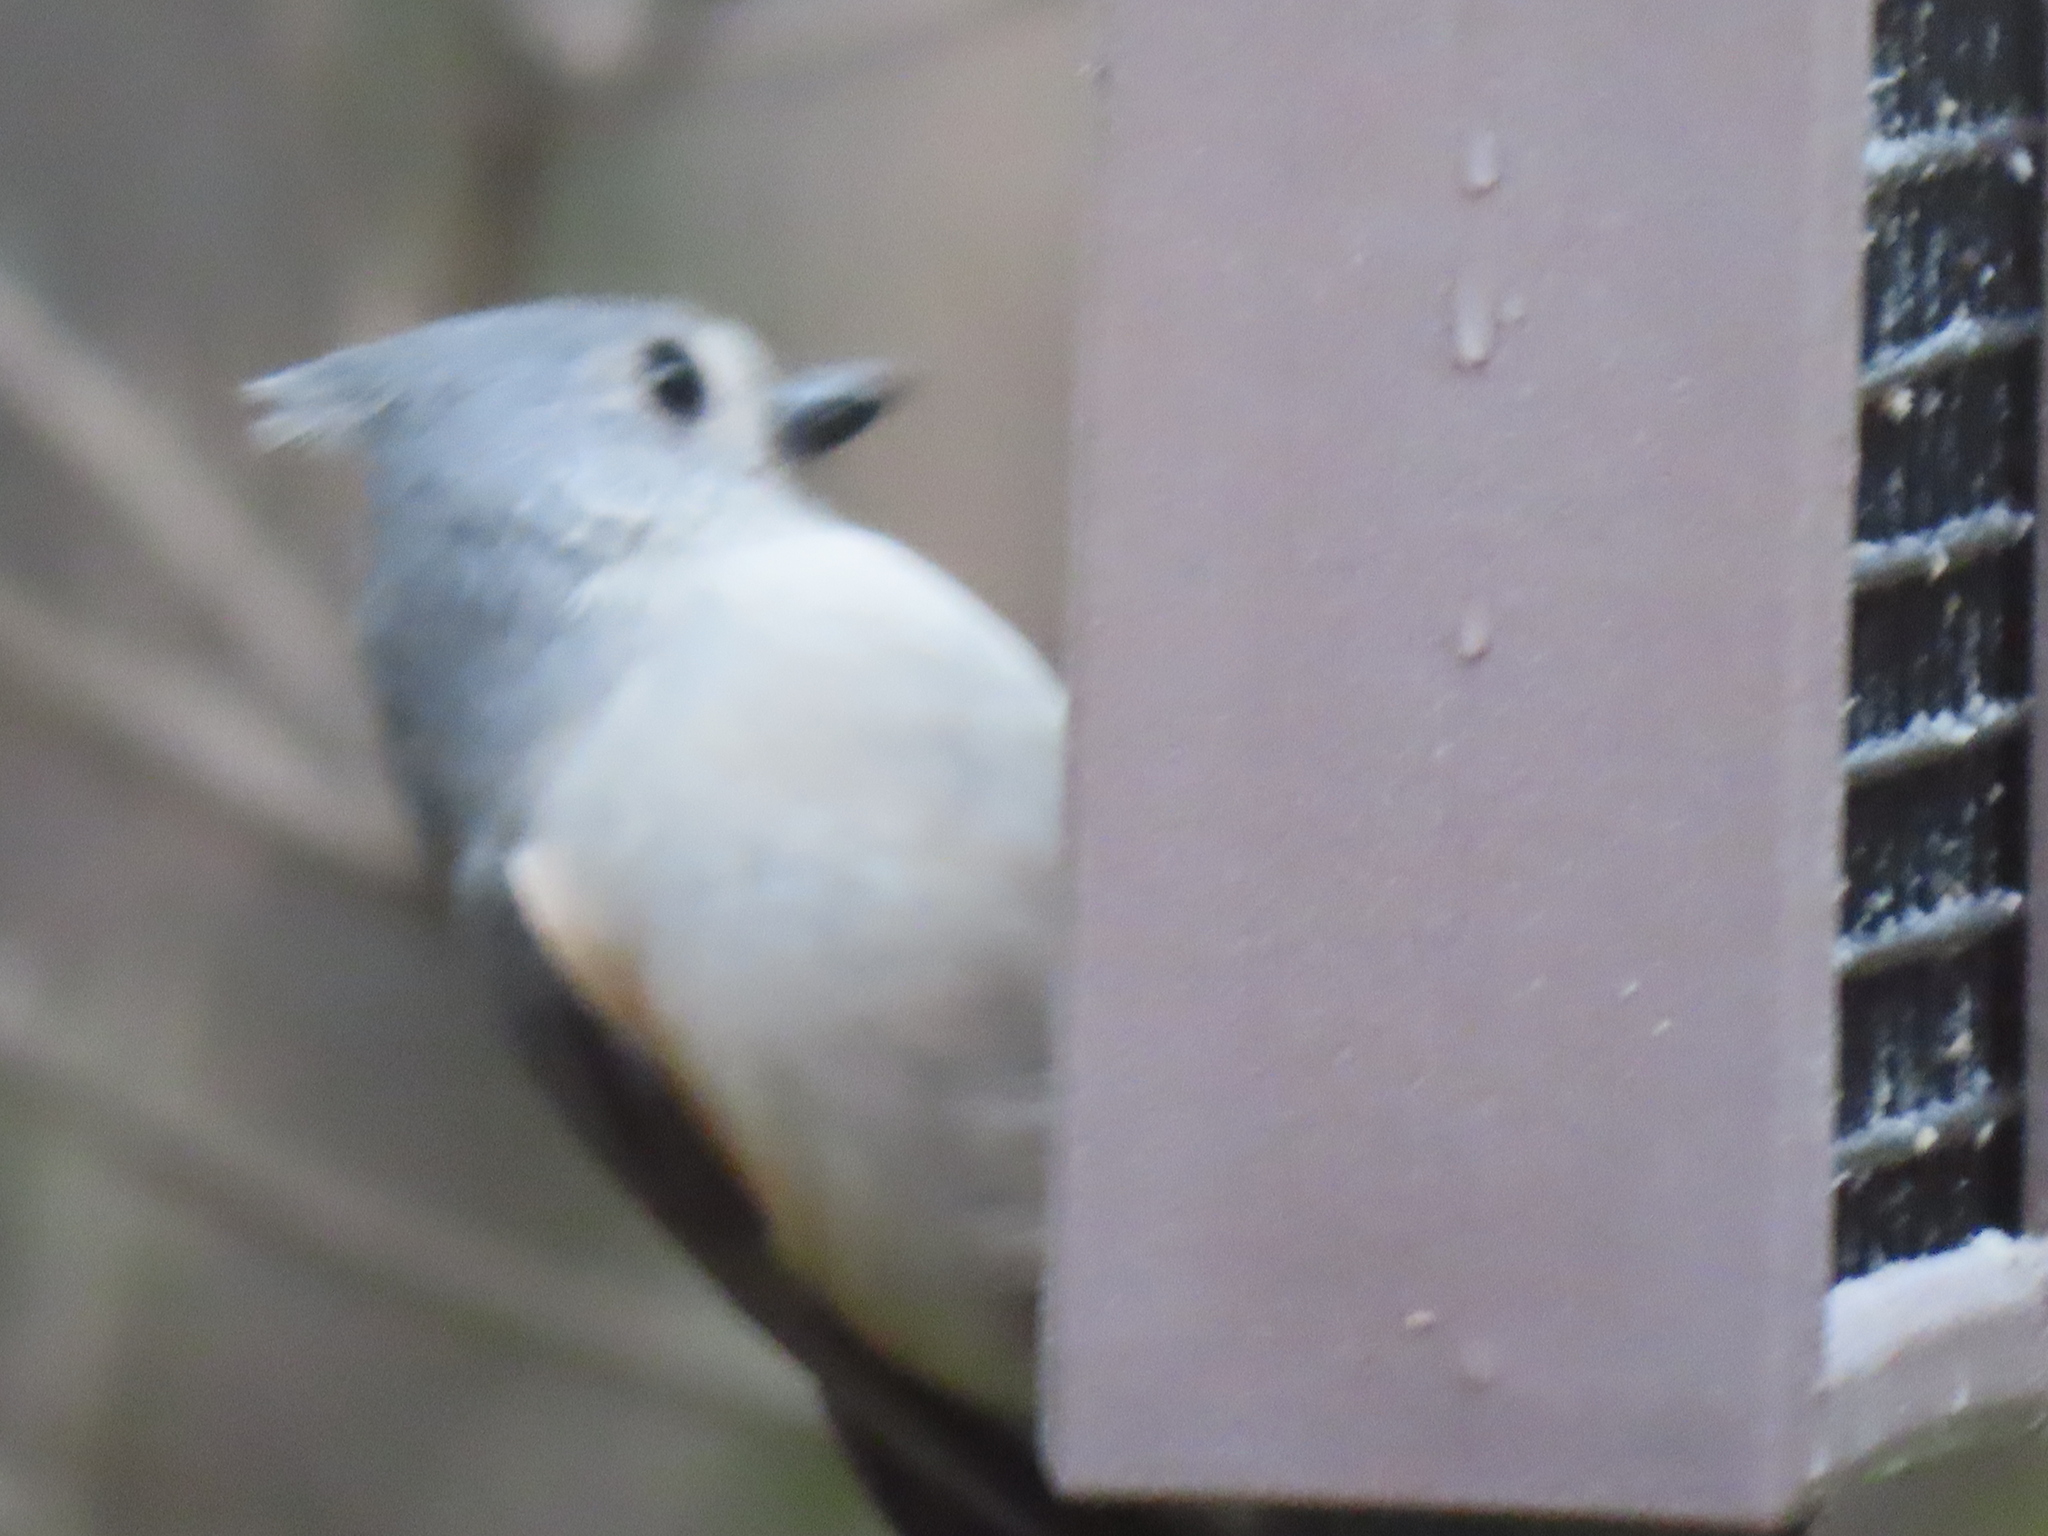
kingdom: Animalia
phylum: Chordata
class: Aves
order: Passeriformes
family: Paridae
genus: Baeolophus
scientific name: Baeolophus bicolor
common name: Tufted titmouse
